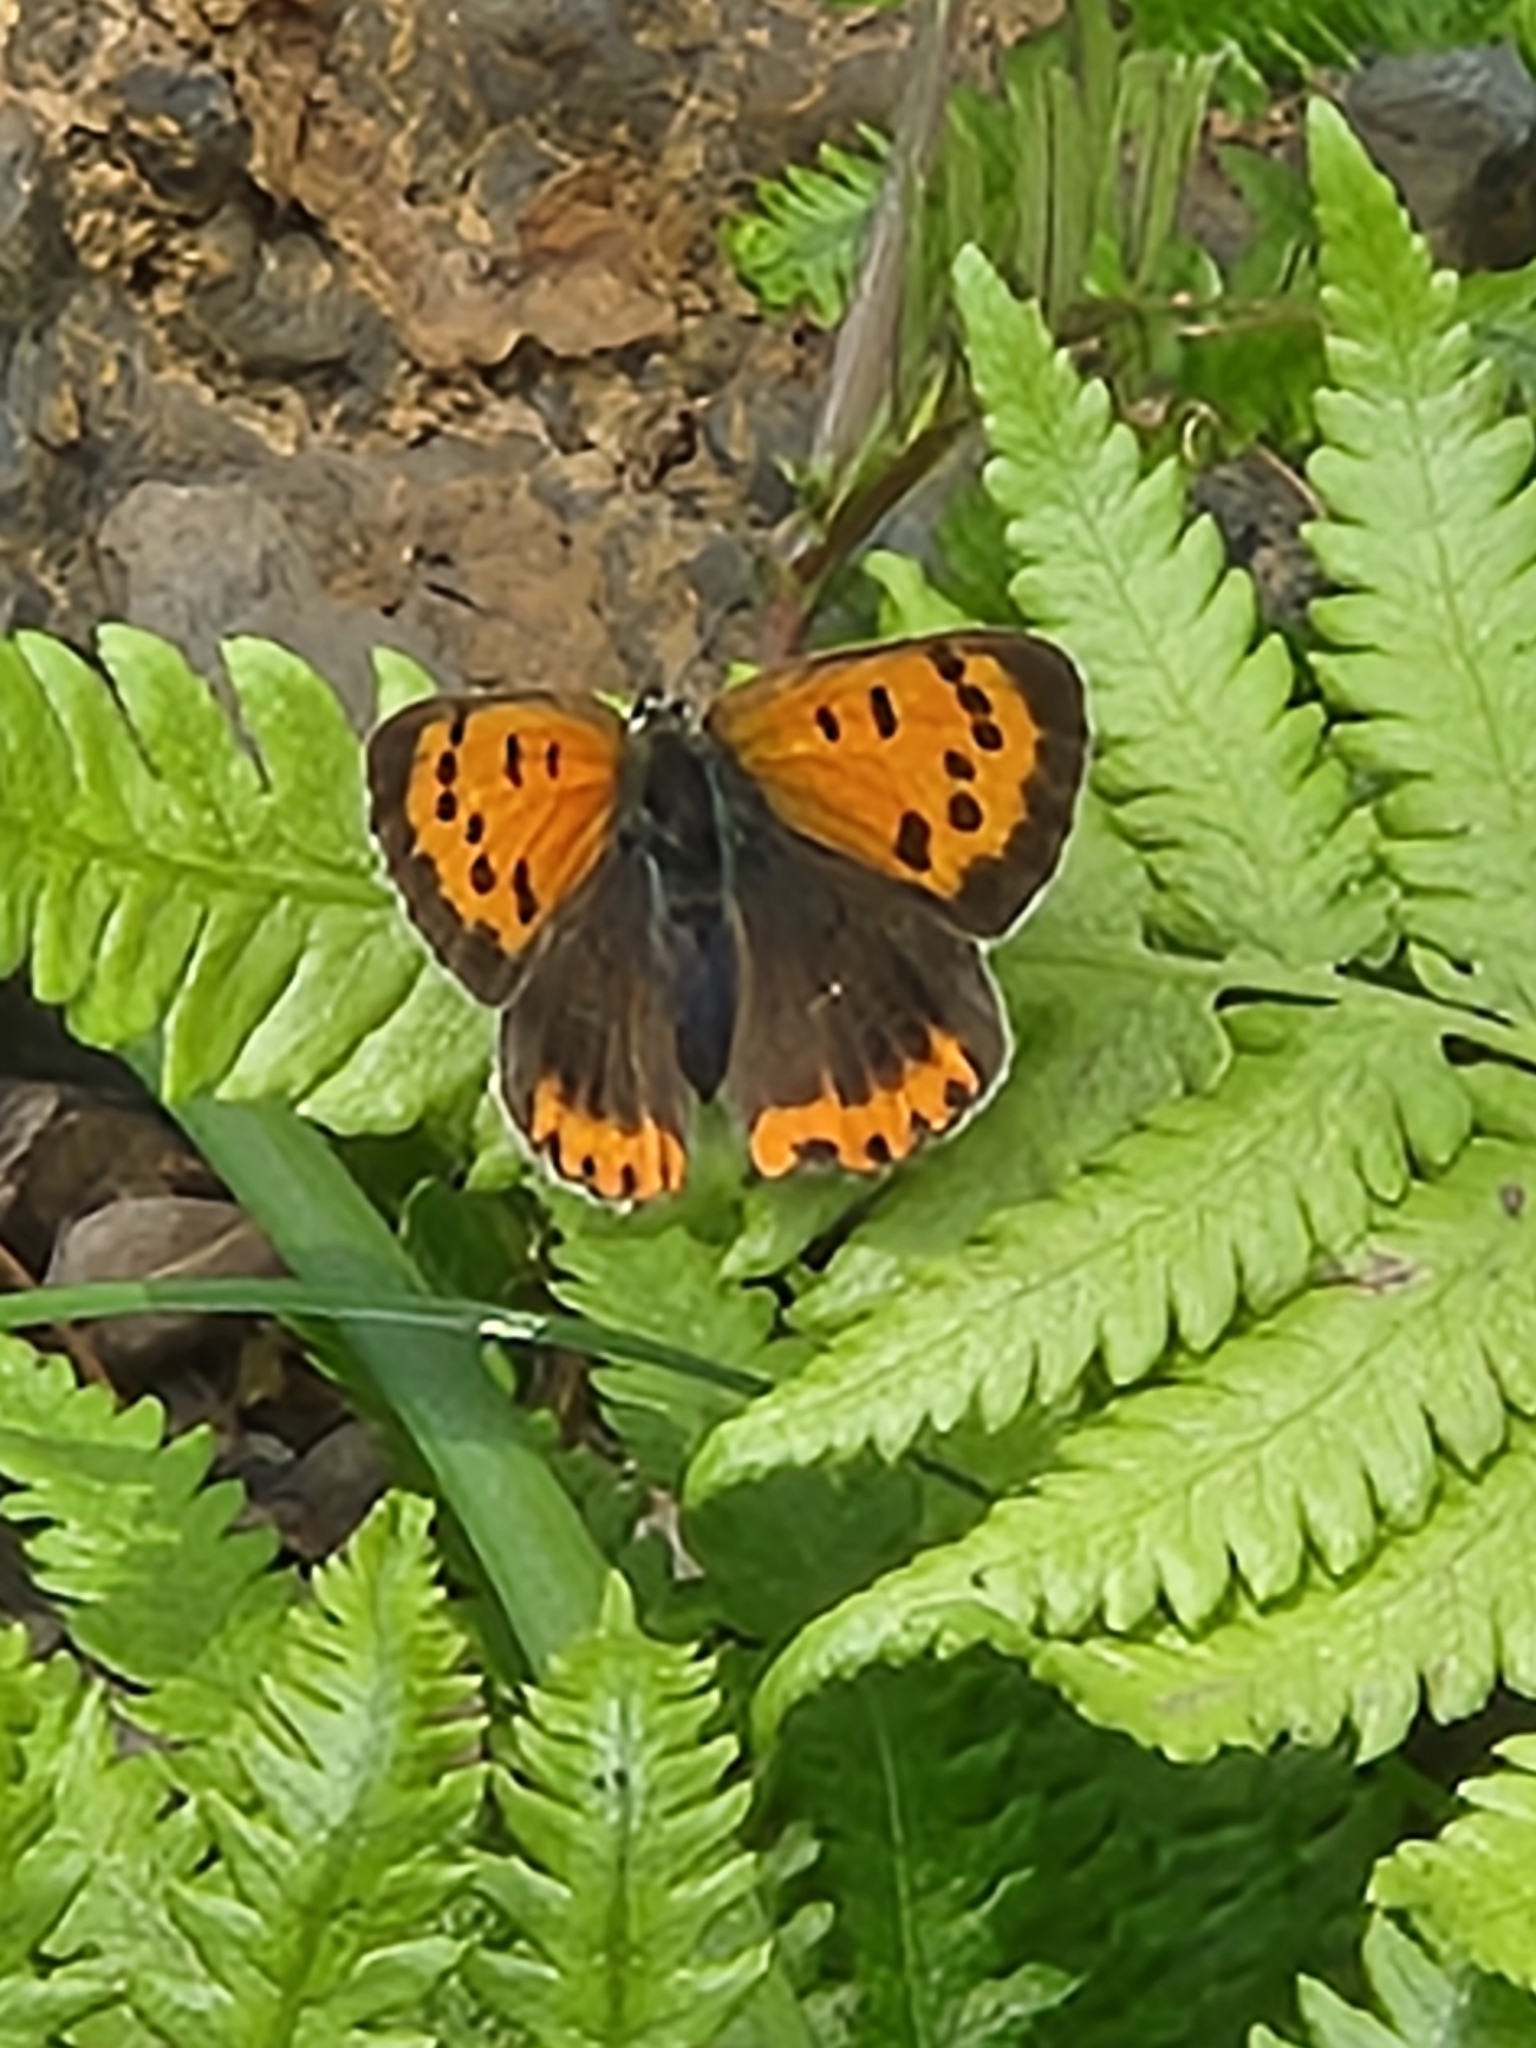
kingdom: Animalia
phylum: Arthropoda
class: Insecta
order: Lepidoptera
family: Lycaenidae
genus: Lycaena
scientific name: Lycaena phlaeas
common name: Small copper
